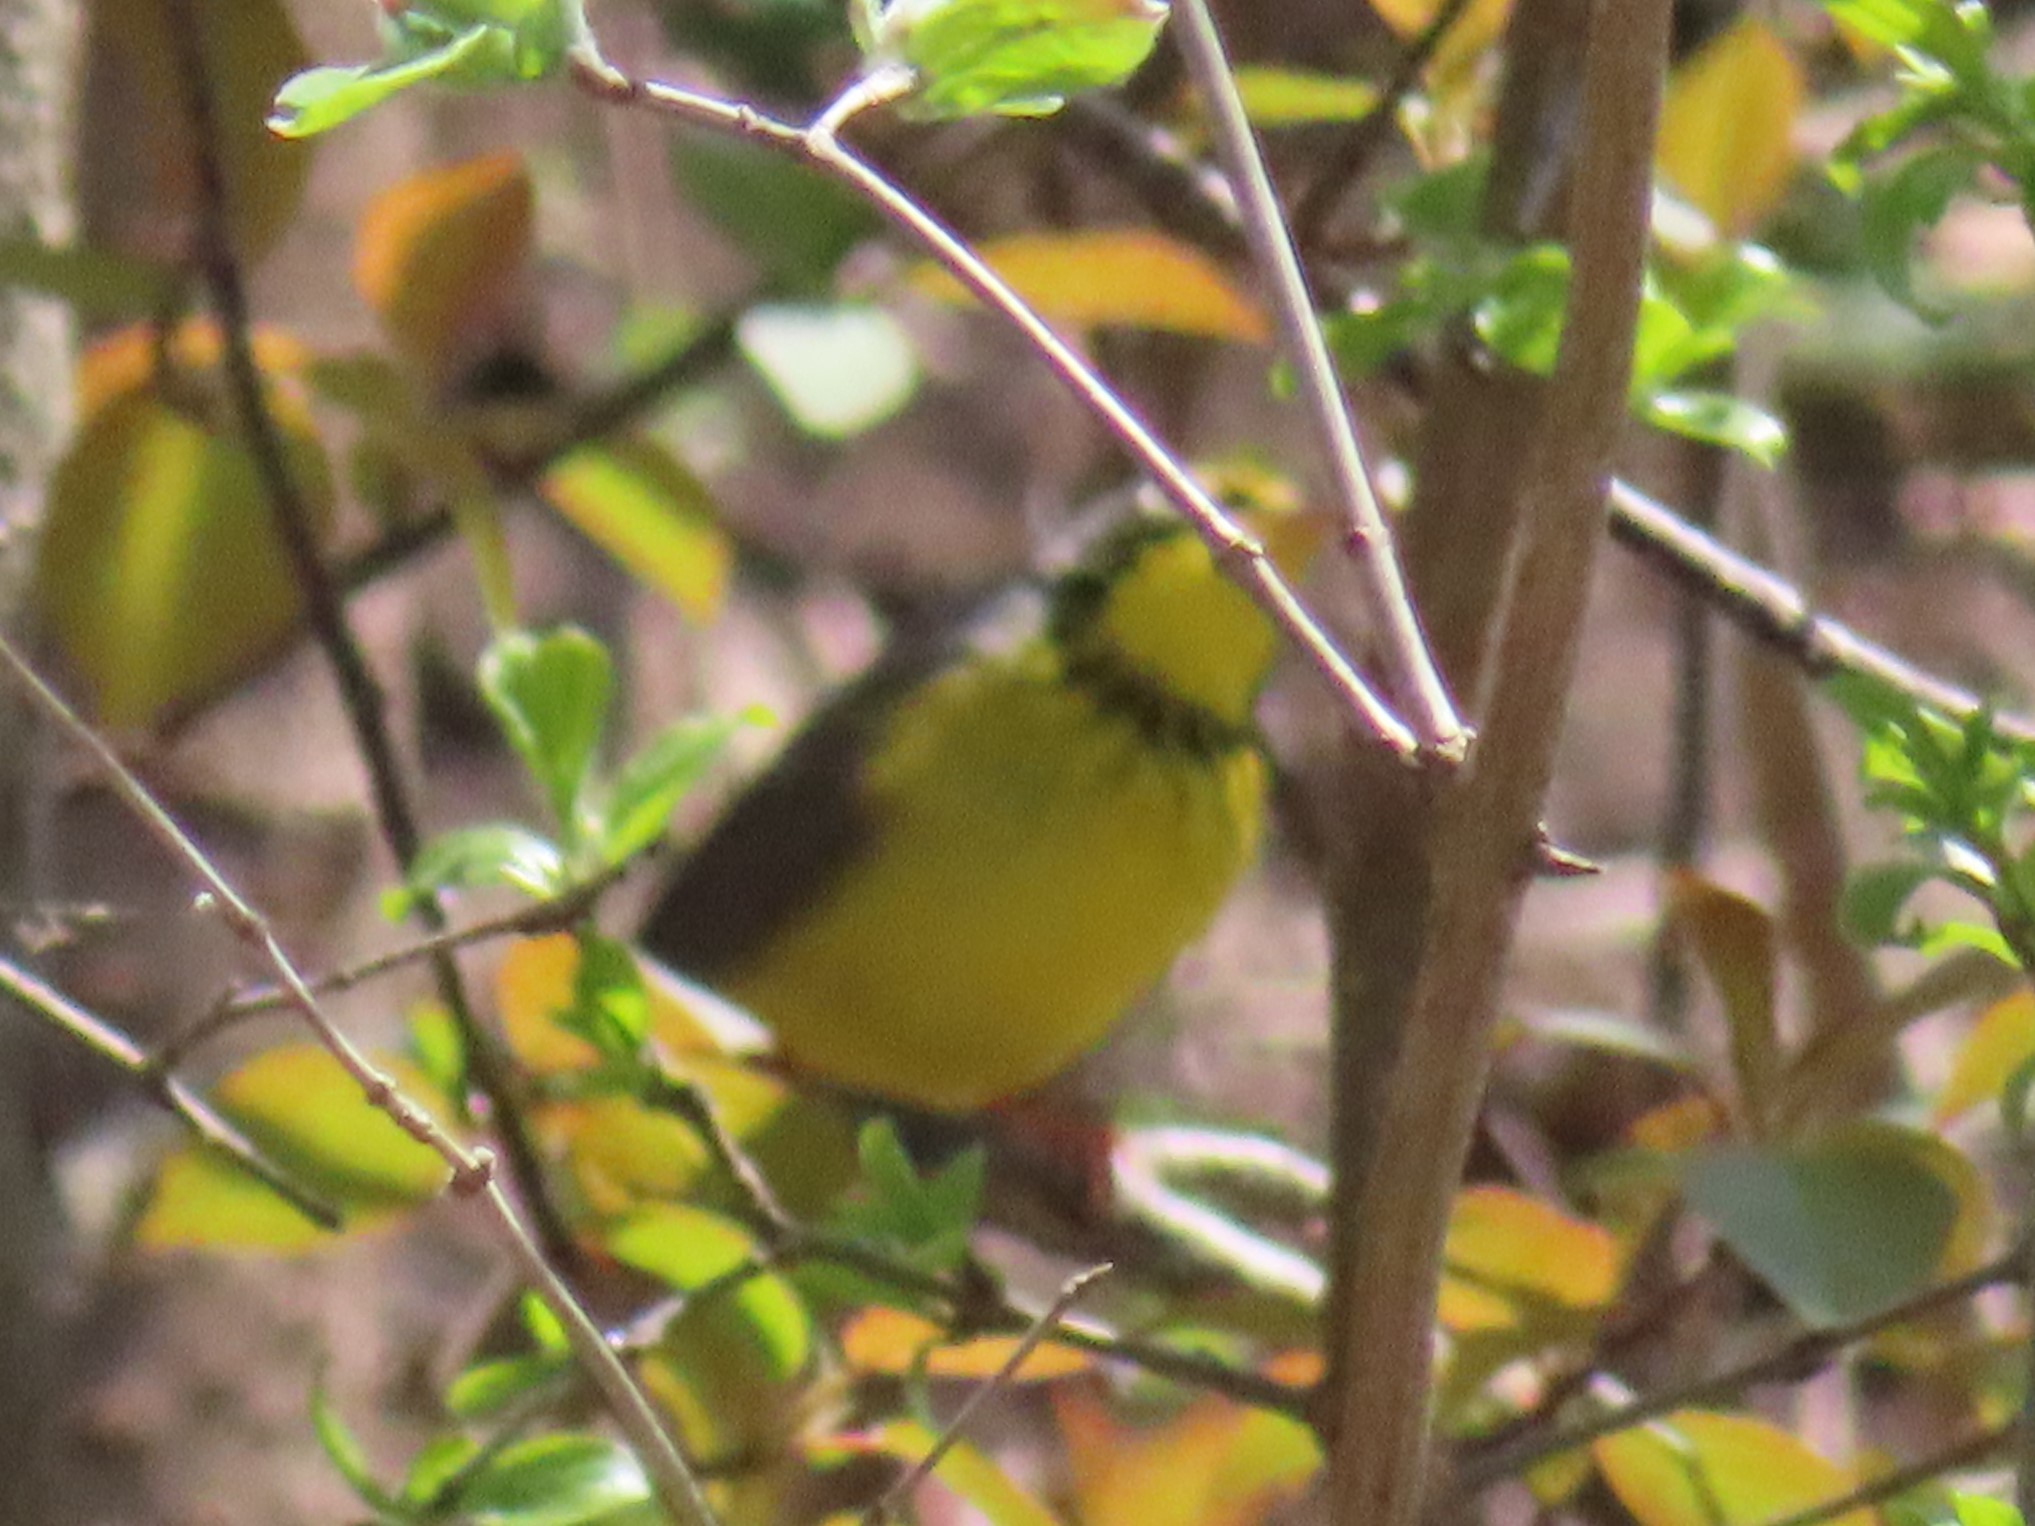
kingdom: Animalia
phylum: Chordata
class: Aves
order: Passeriformes
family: Parulidae
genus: Cardellina
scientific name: Cardellina canadensis
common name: Canada warbler
